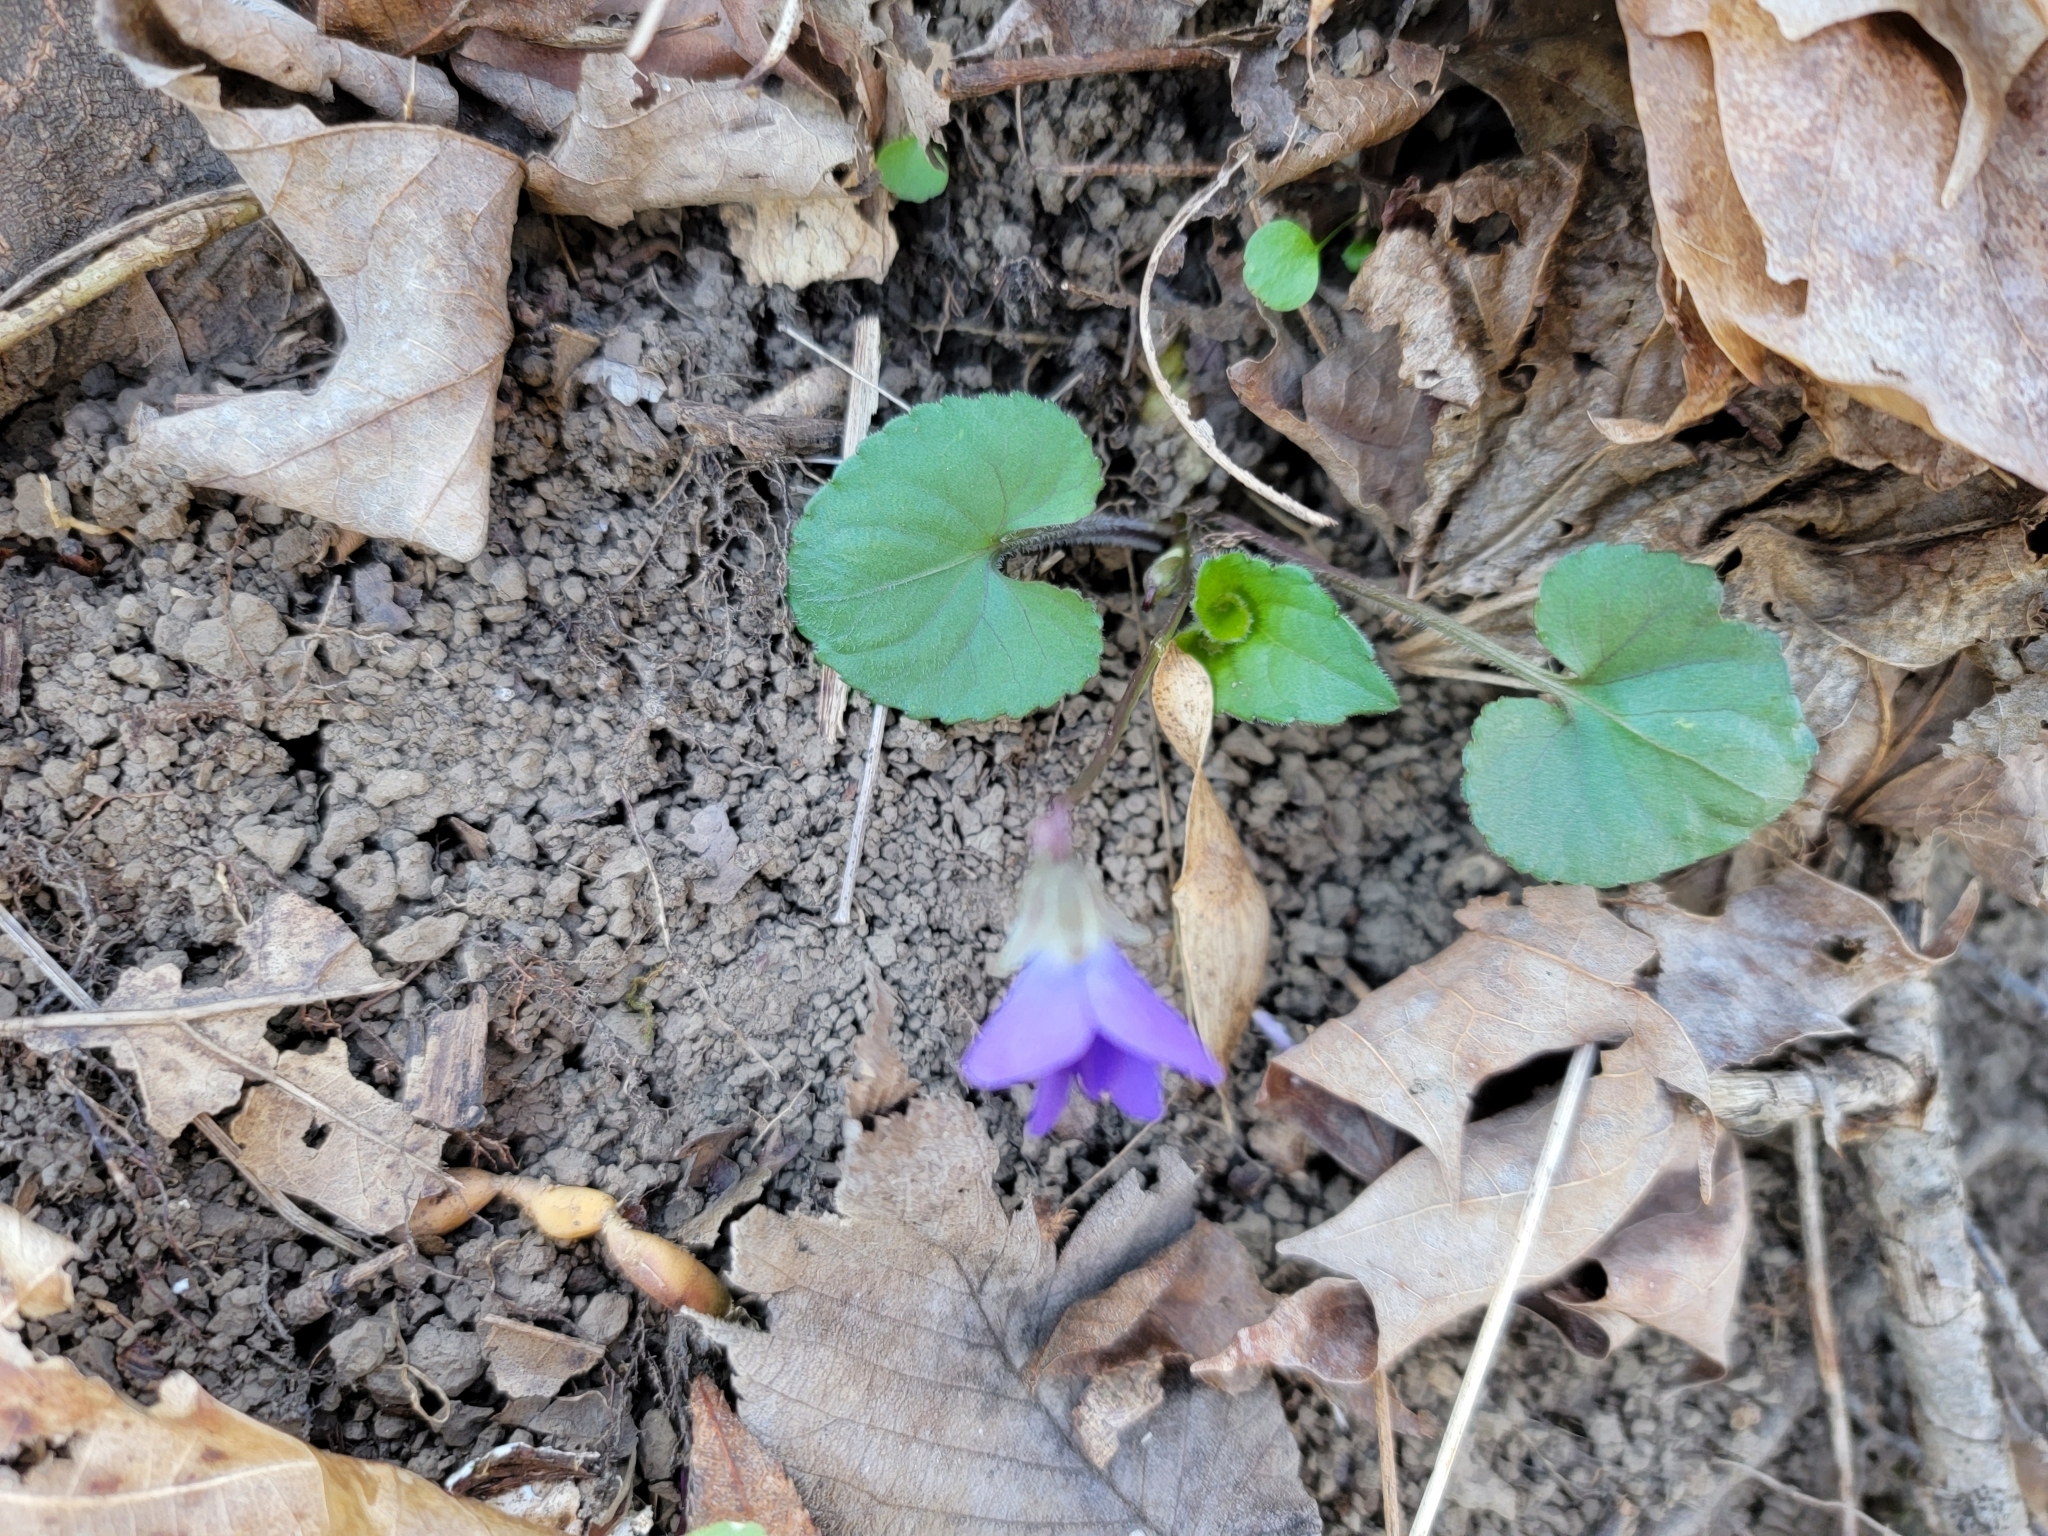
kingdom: Plantae
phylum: Tracheophyta
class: Magnoliopsida
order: Malpighiales
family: Violaceae
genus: Viola
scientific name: Viola sororia
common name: Dooryard violet
